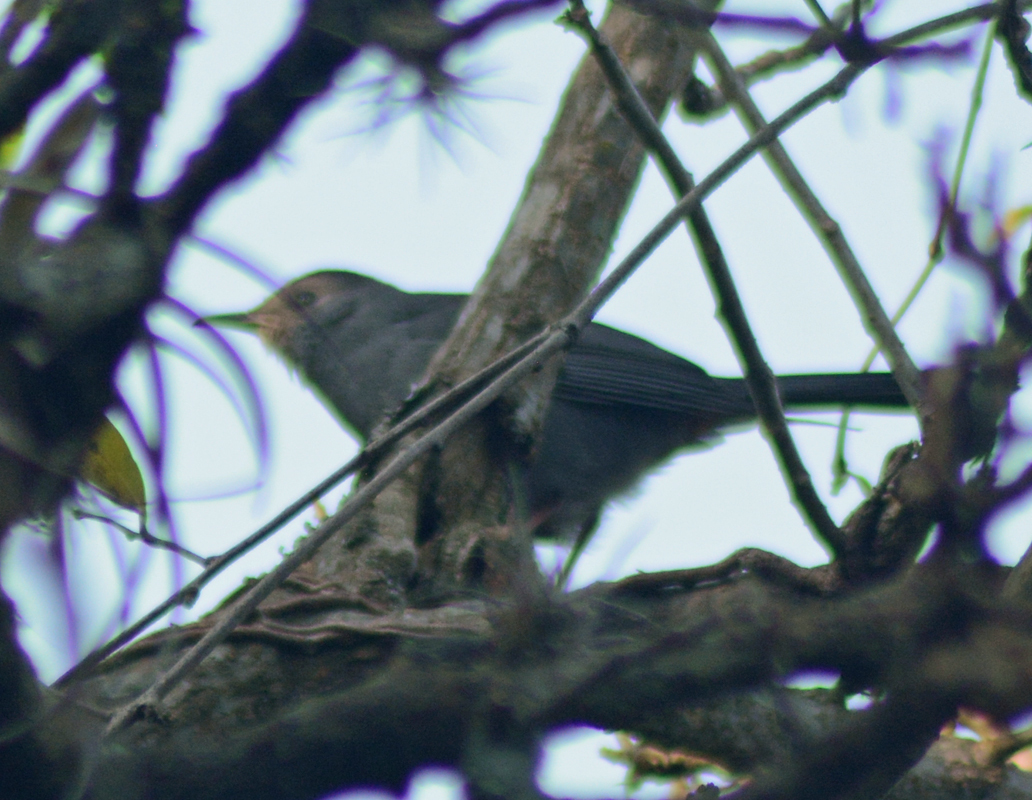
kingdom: Animalia
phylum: Chordata
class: Aves
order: Passeriformes
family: Mimidae
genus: Dumetella
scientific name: Dumetella carolinensis
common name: Gray catbird
